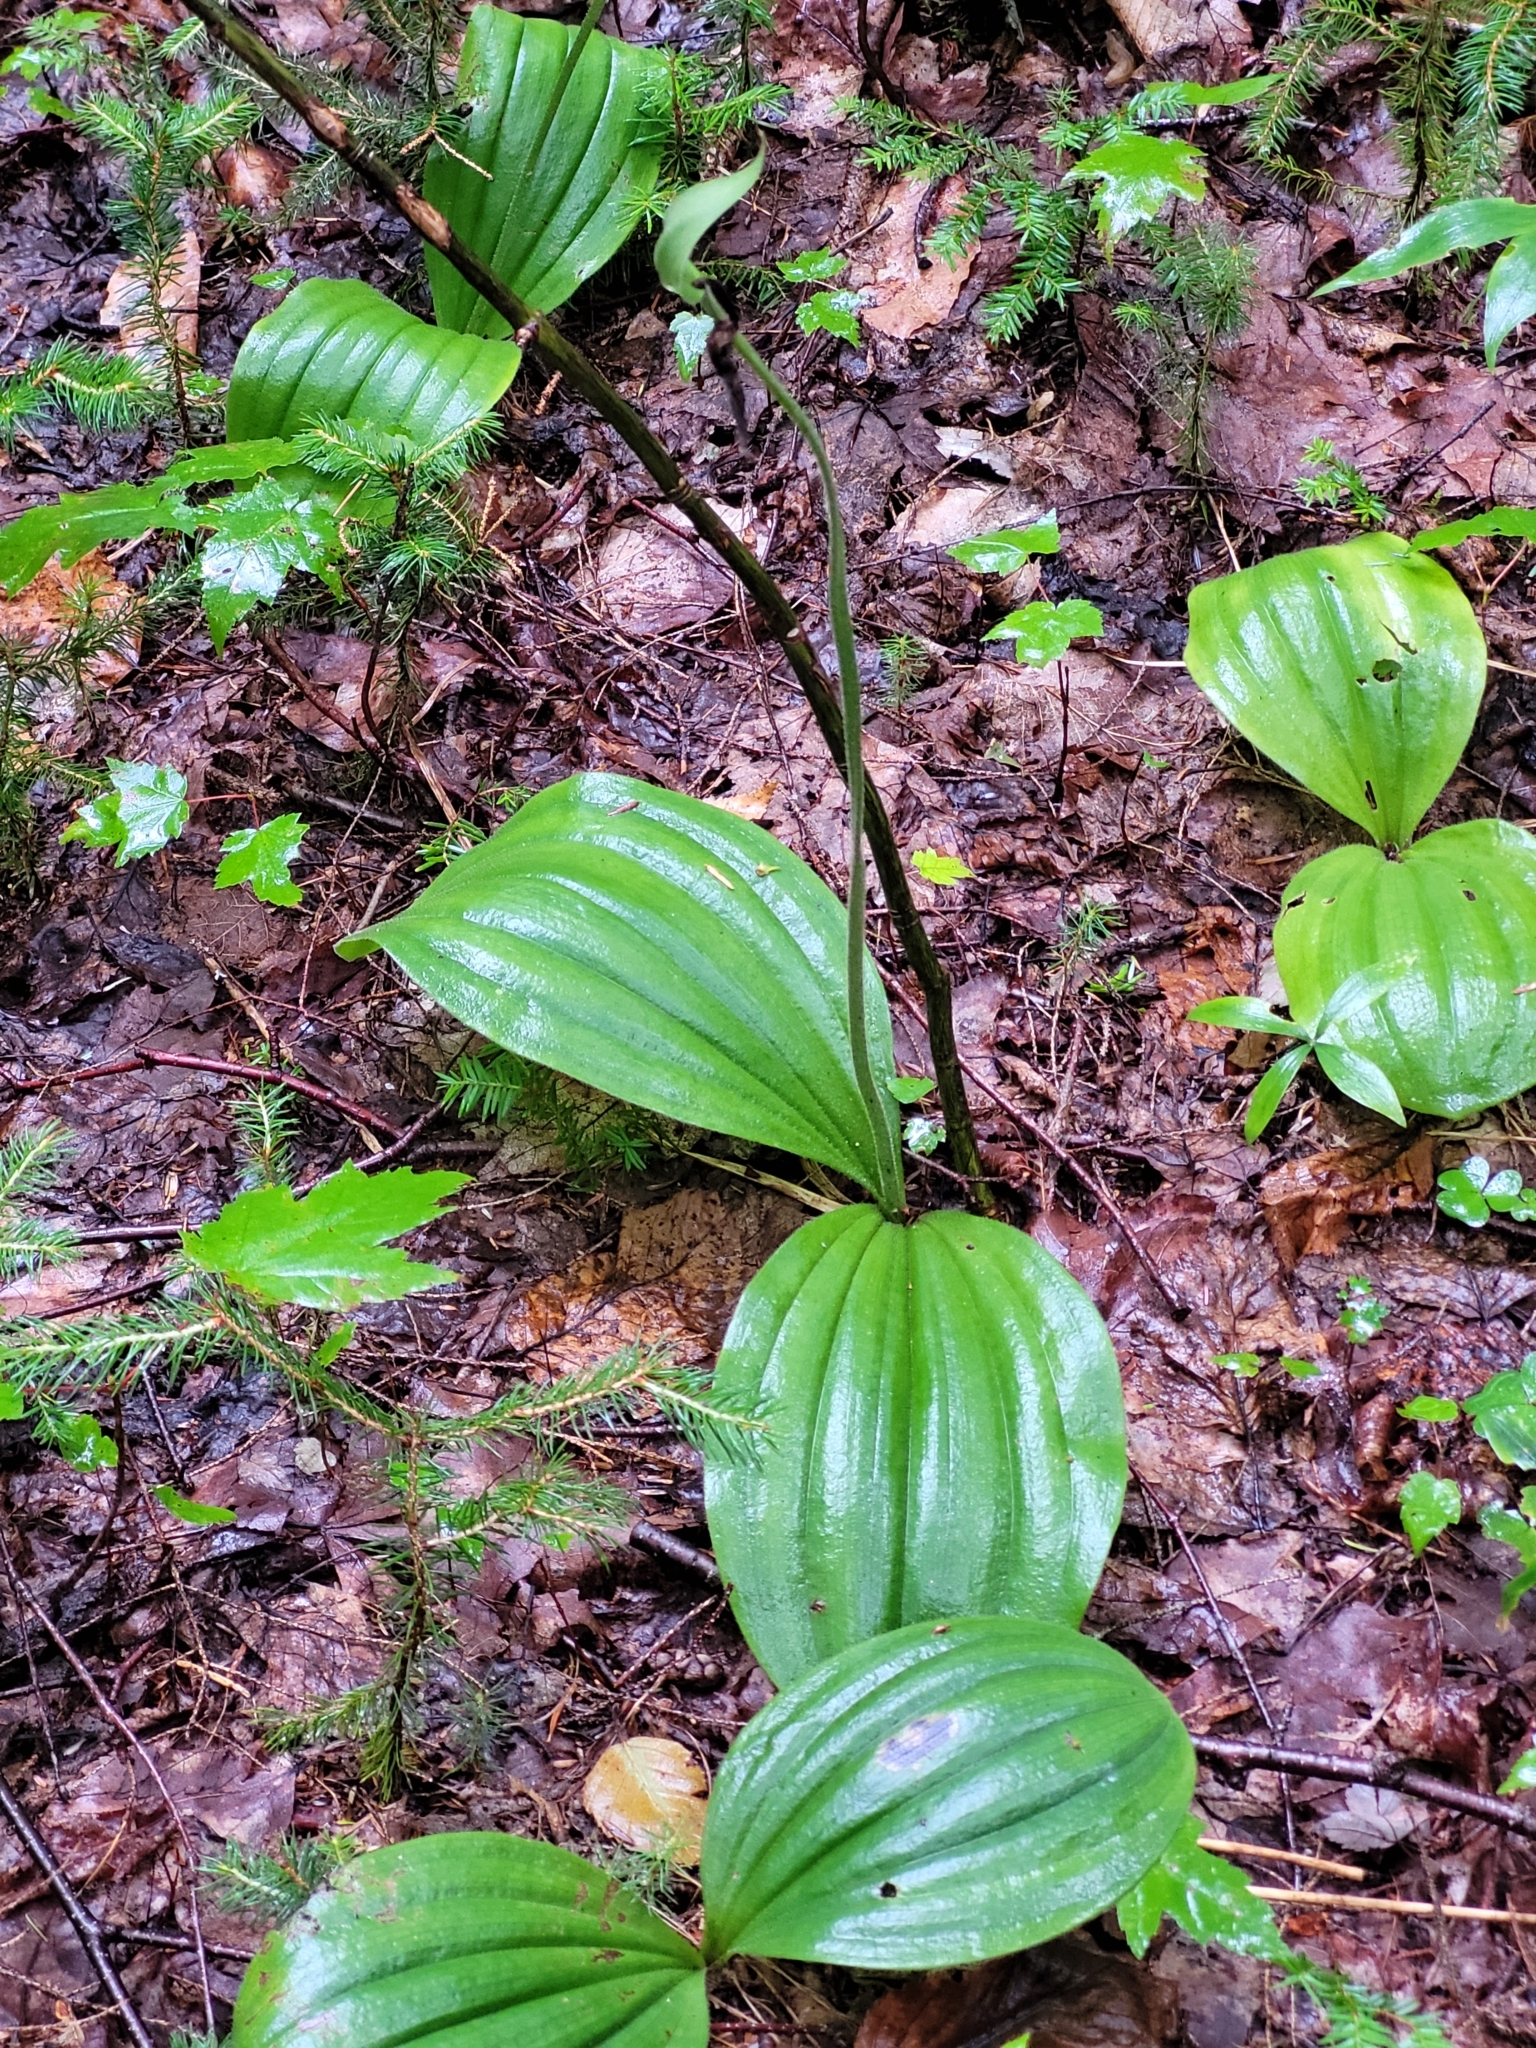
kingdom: Plantae
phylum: Tracheophyta
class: Liliopsida
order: Asparagales
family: Orchidaceae
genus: Cypripedium
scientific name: Cypripedium acaule
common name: Pink lady's-slipper
